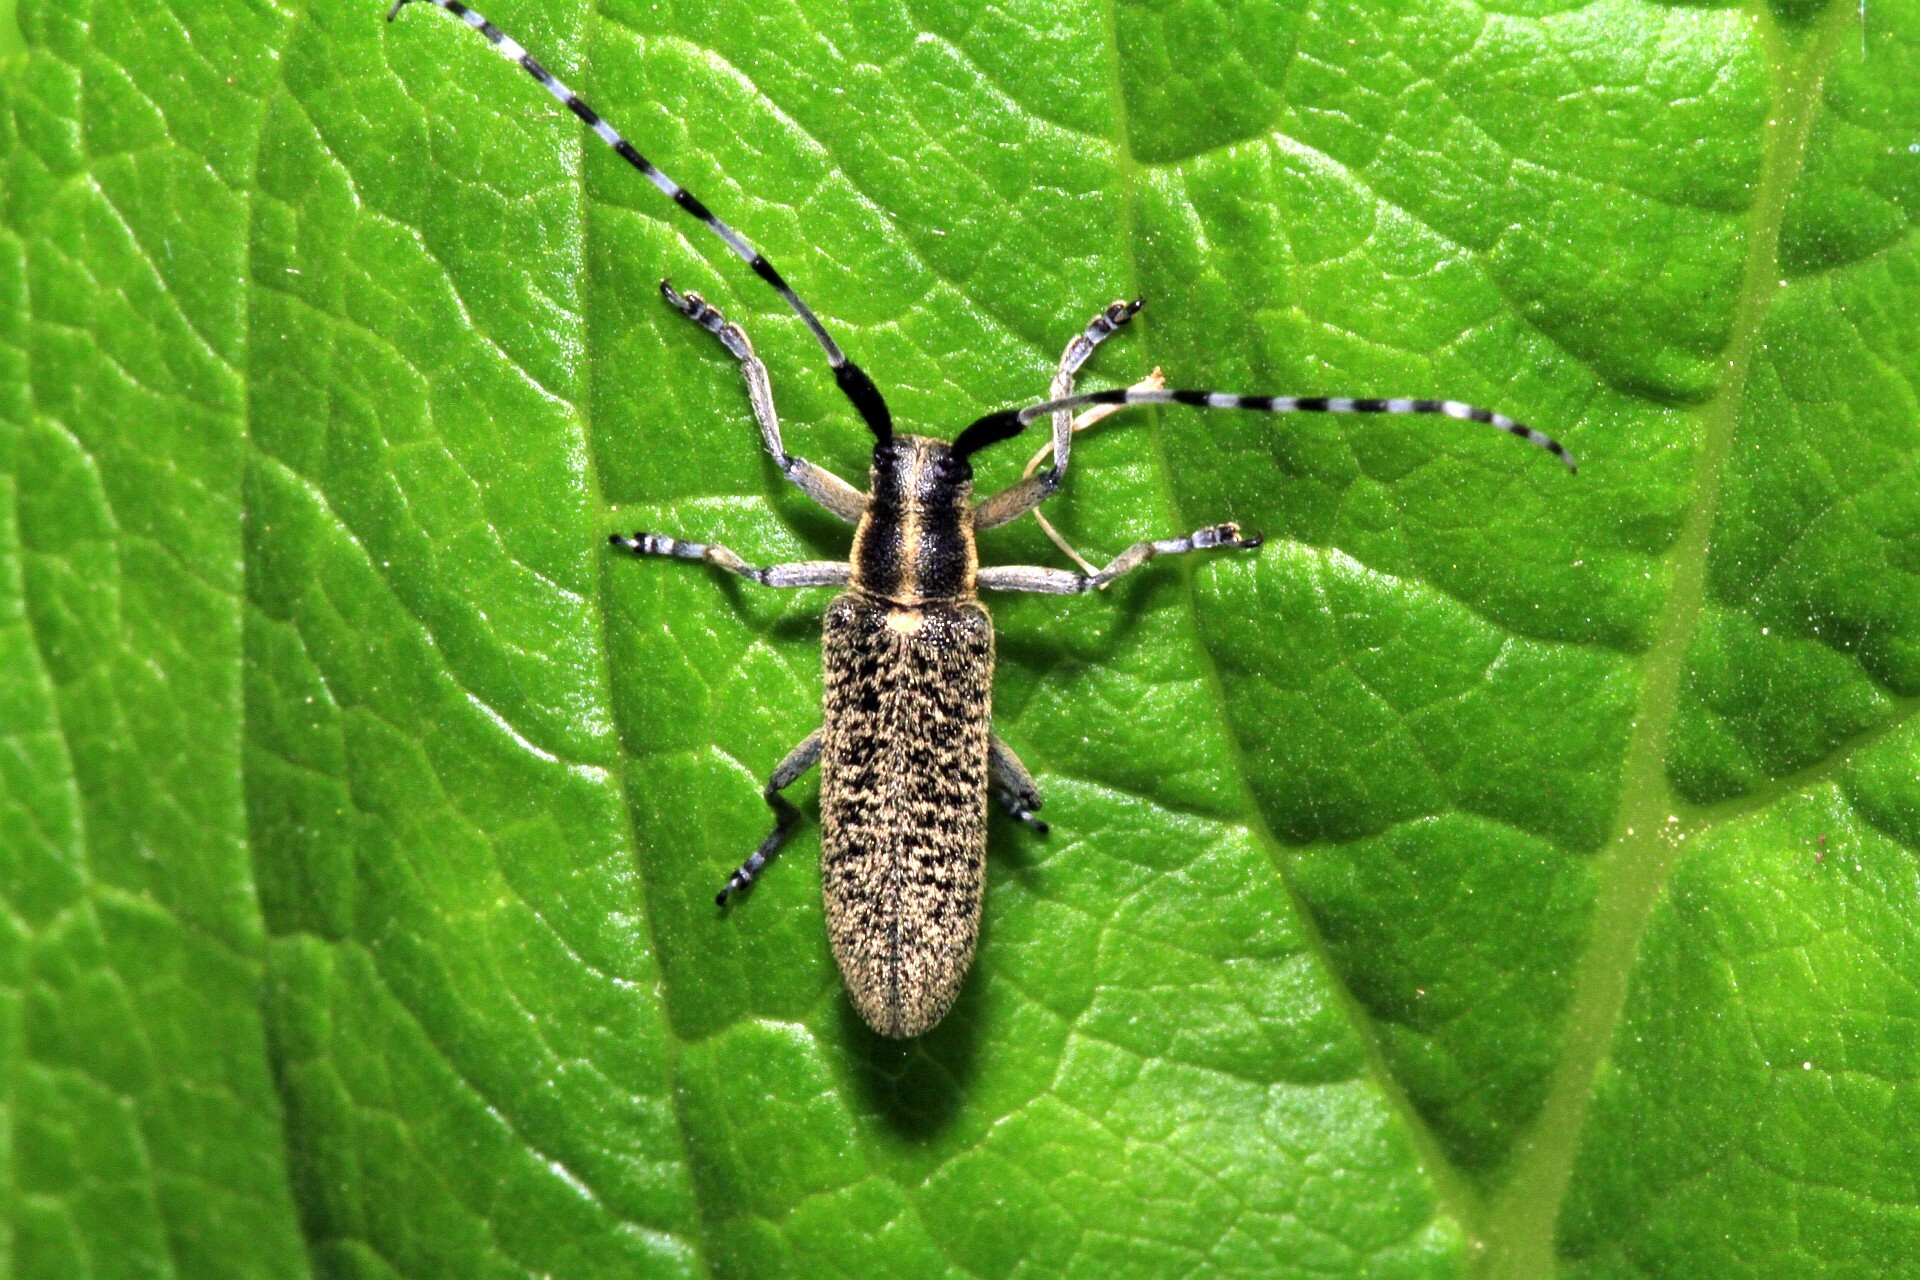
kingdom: Animalia
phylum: Arthropoda
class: Insecta
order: Coleoptera
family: Cerambycidae
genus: Agapanthia
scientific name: Agapanthia villosoviridescens
